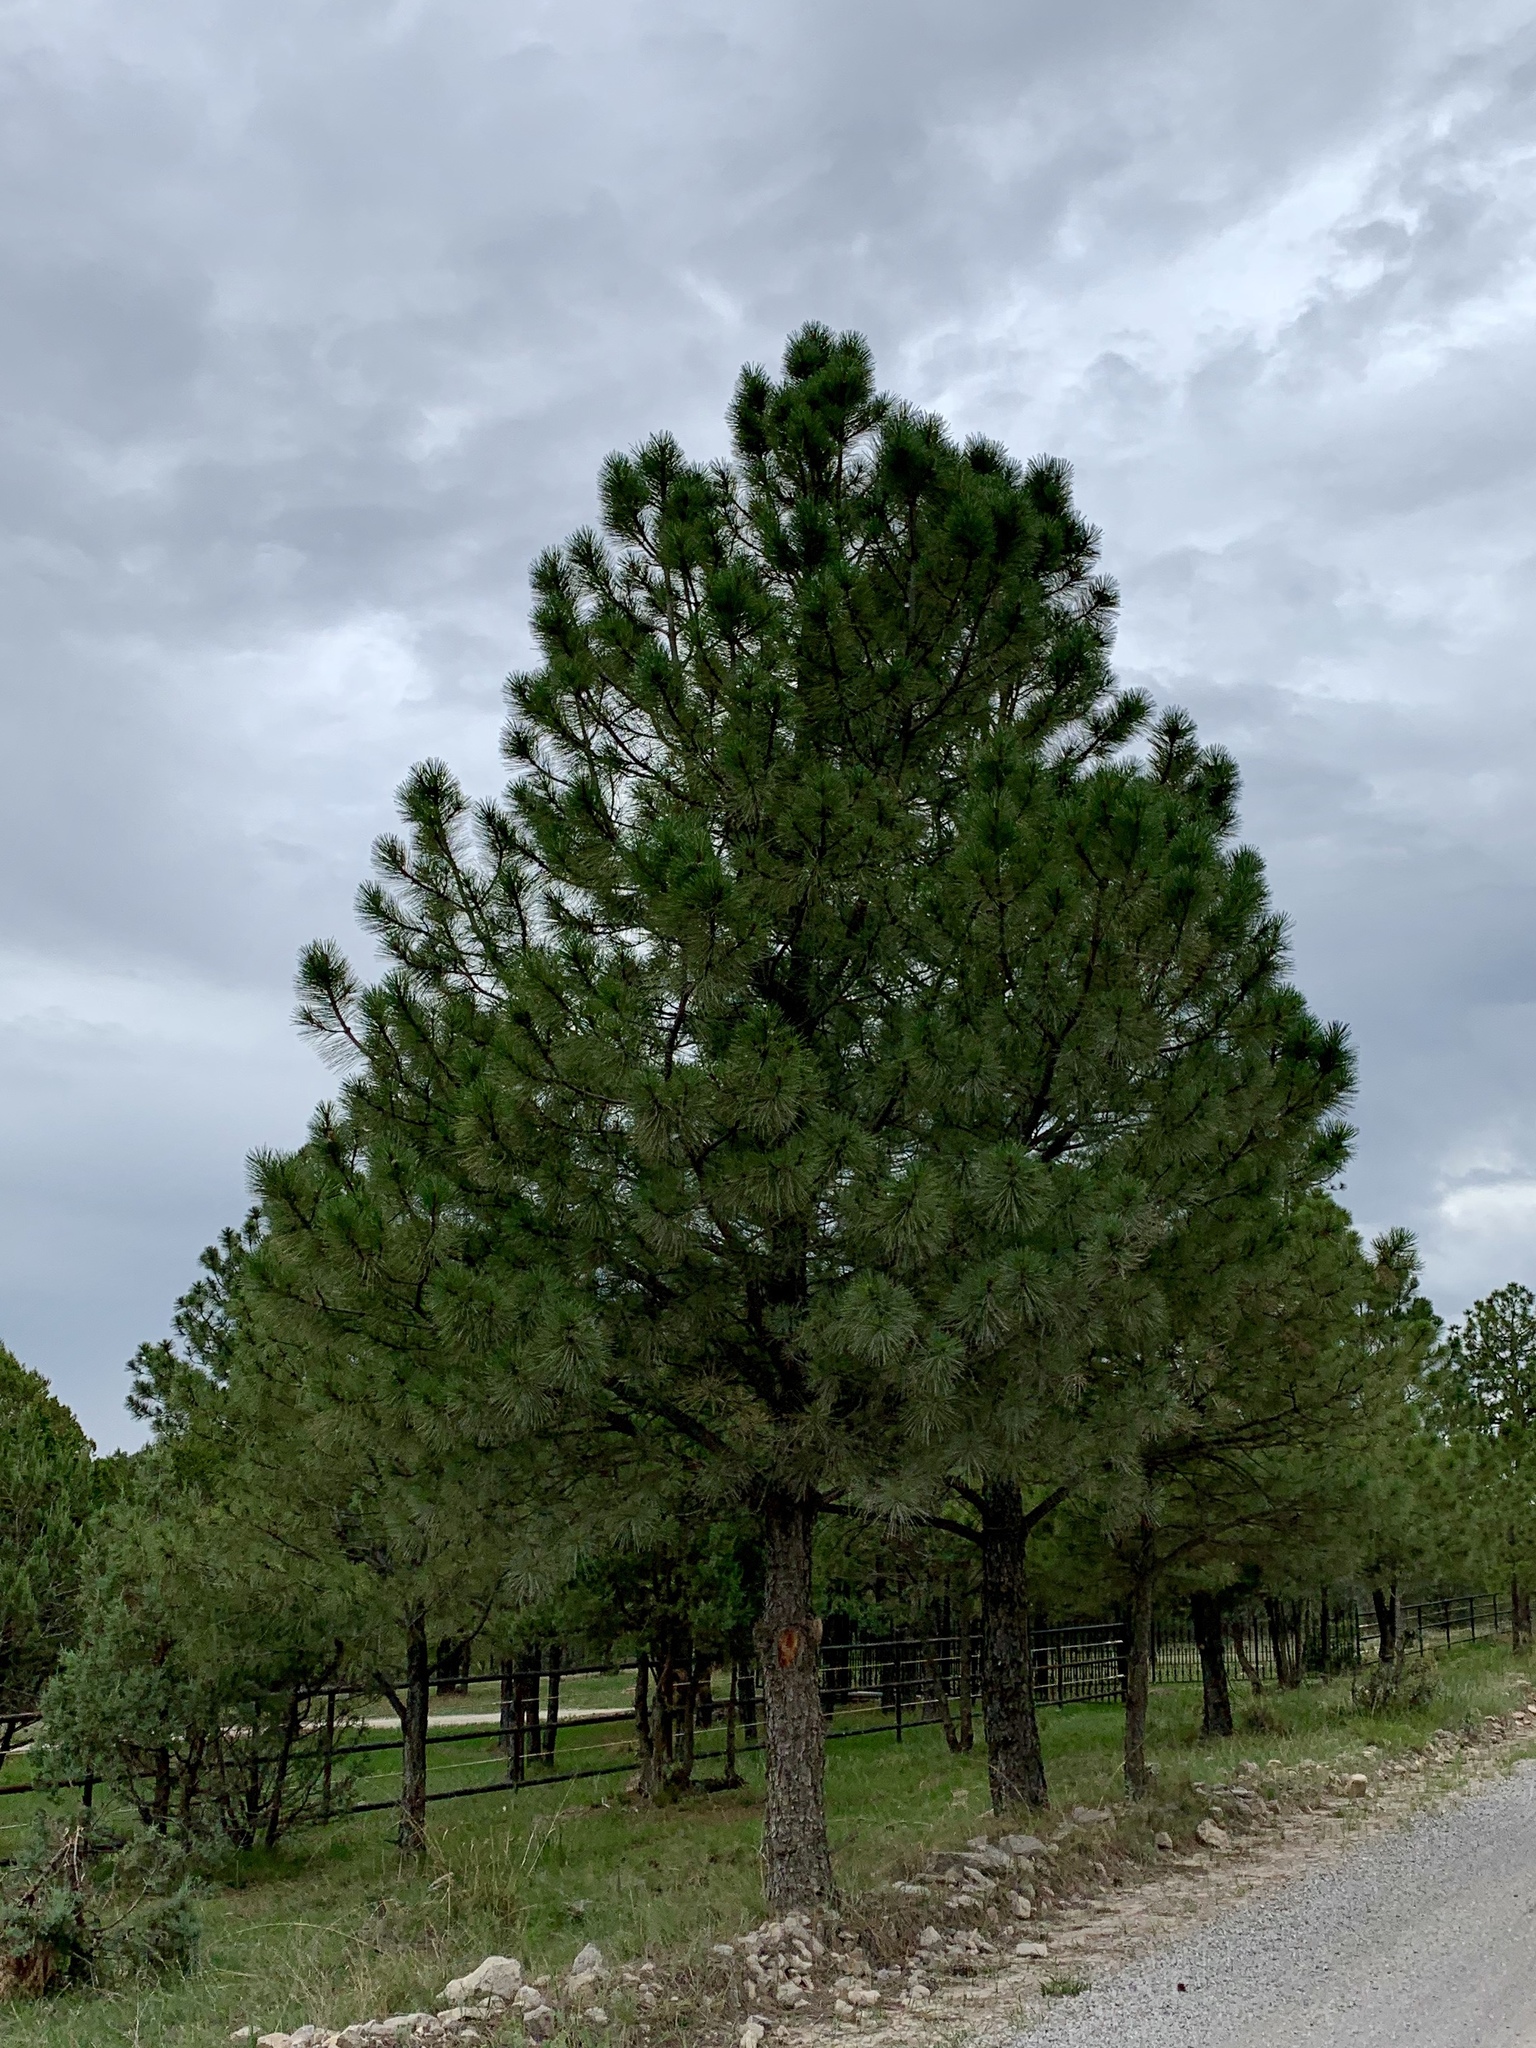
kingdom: Plantae
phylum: Tracheophyta
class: Pinopsida
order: Pinales
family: Pinaceae
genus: Pinus
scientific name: Pinus ponderosa
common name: Western yellow-pine
